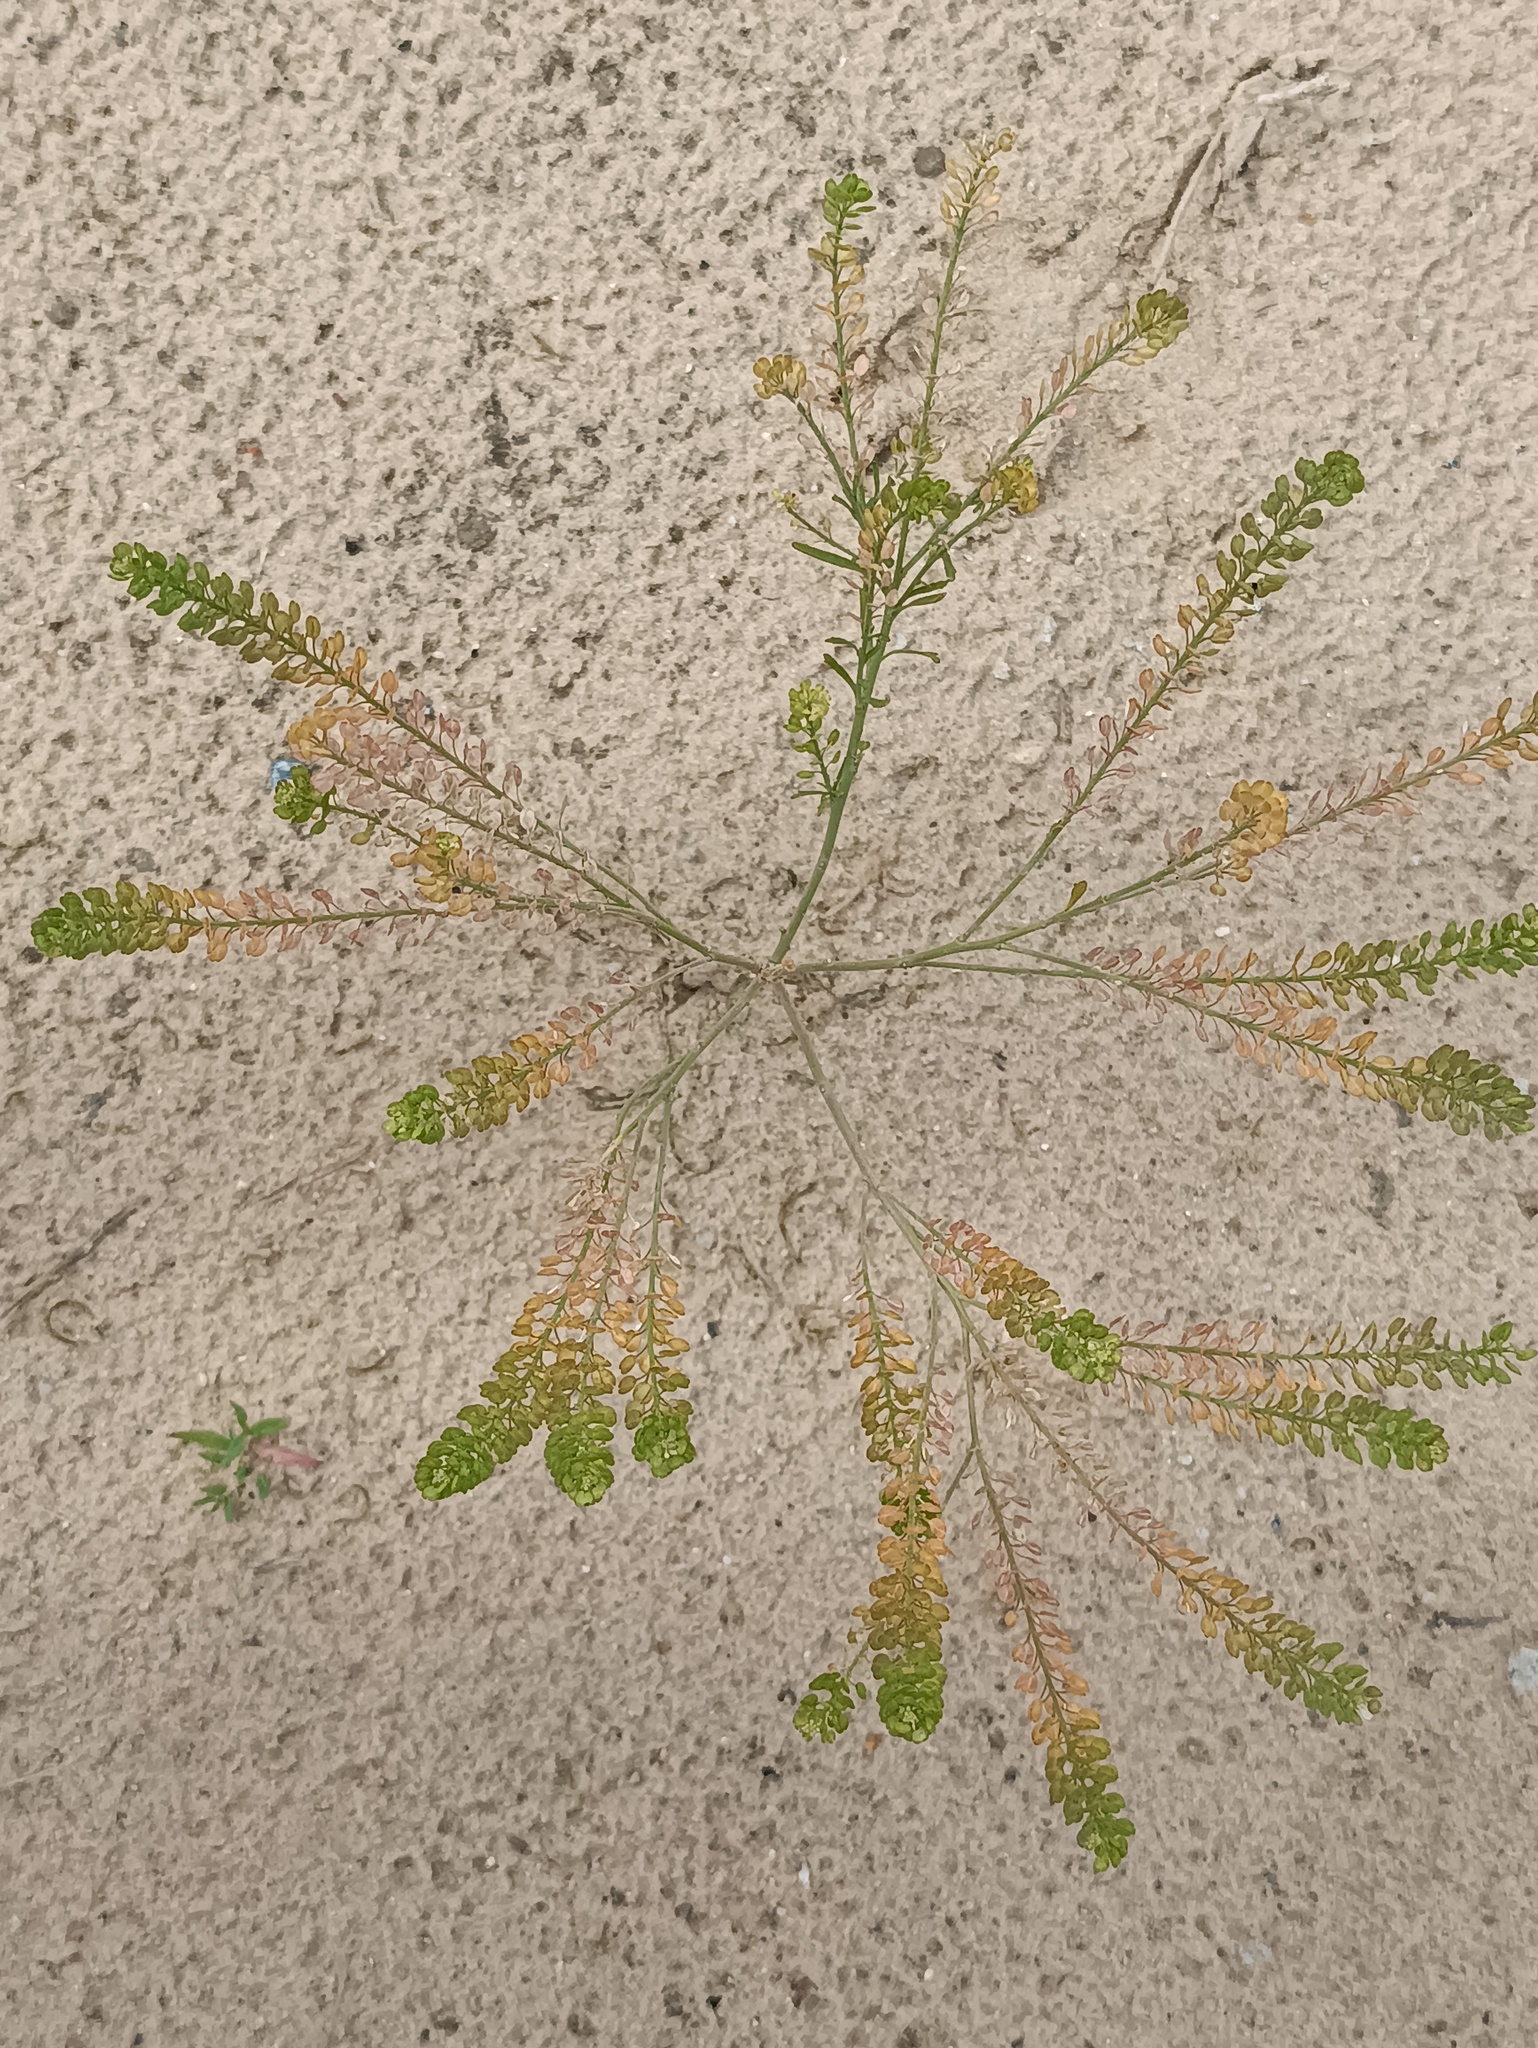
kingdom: Plantae
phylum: Tracheophyta
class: Magnoliopsida
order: Brassicales
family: Brassicaceae
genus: Lepidium
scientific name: Lepidium densiflorum
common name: Miner's pepperwort
